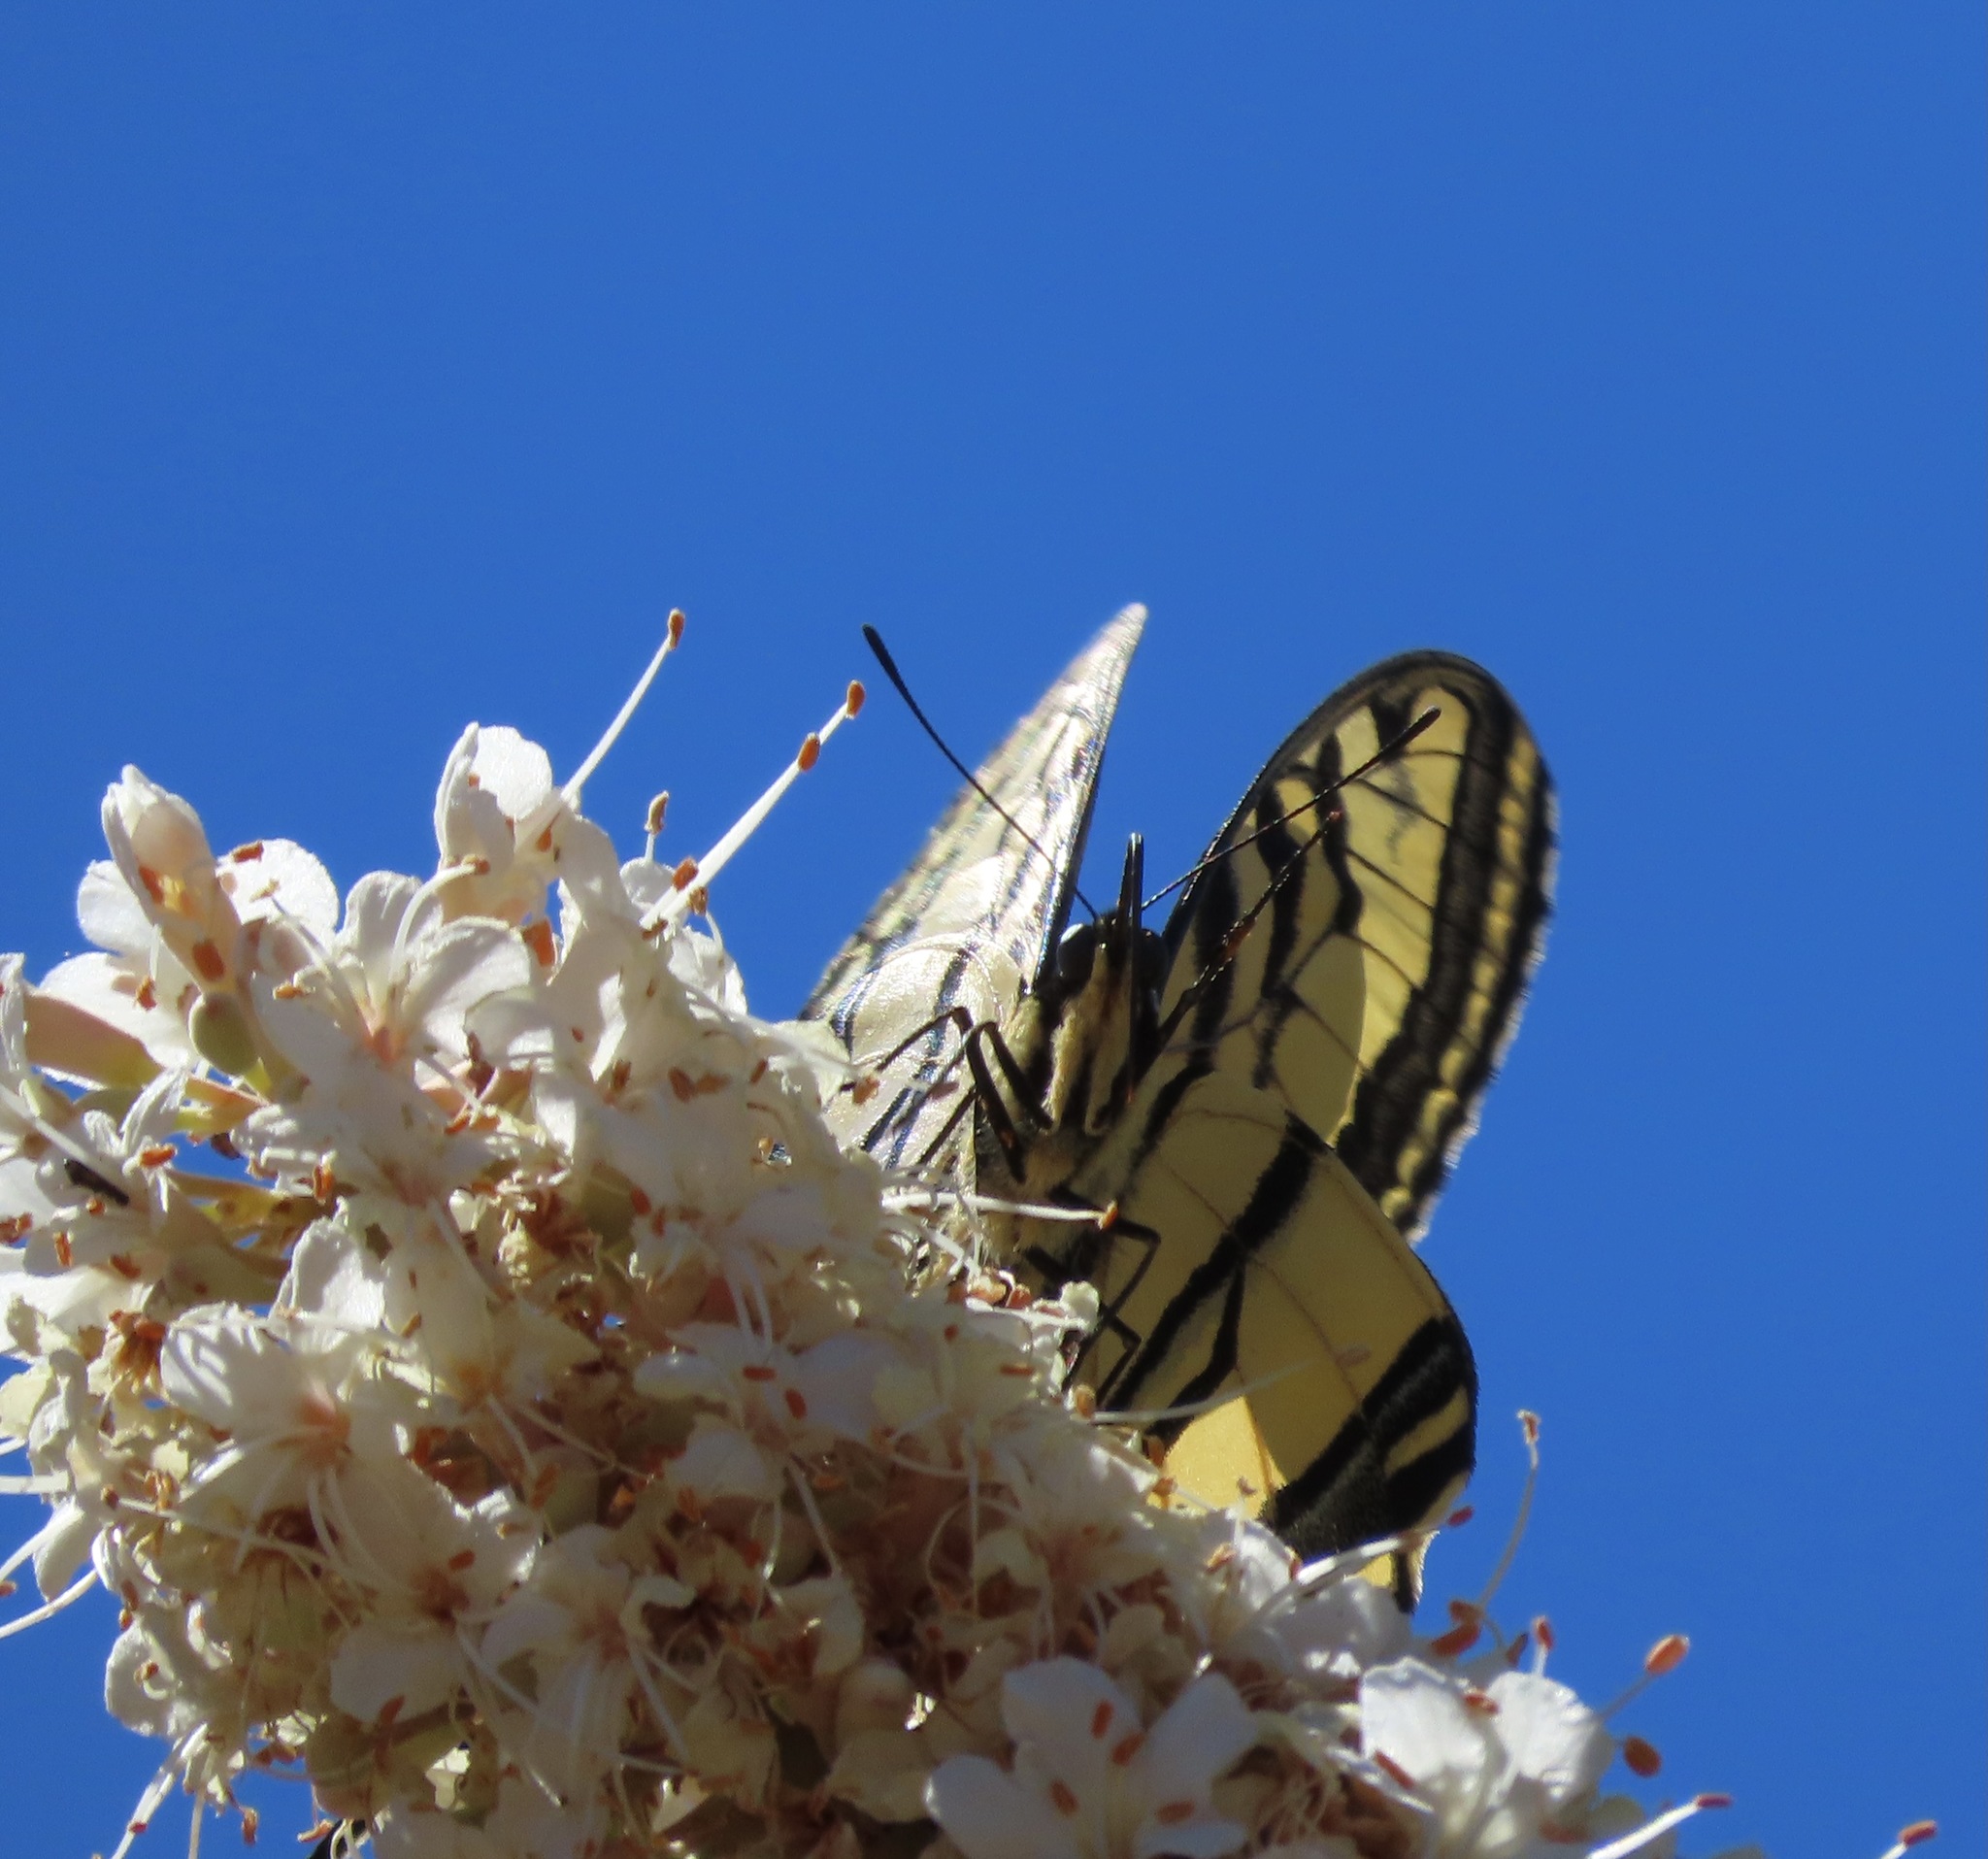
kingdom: Animalia
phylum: Arthropoda
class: Insecta
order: Lepidoptera
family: Papilionidae
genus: Papilio
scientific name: Papilio rutulus
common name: Western tiger swallowtail
